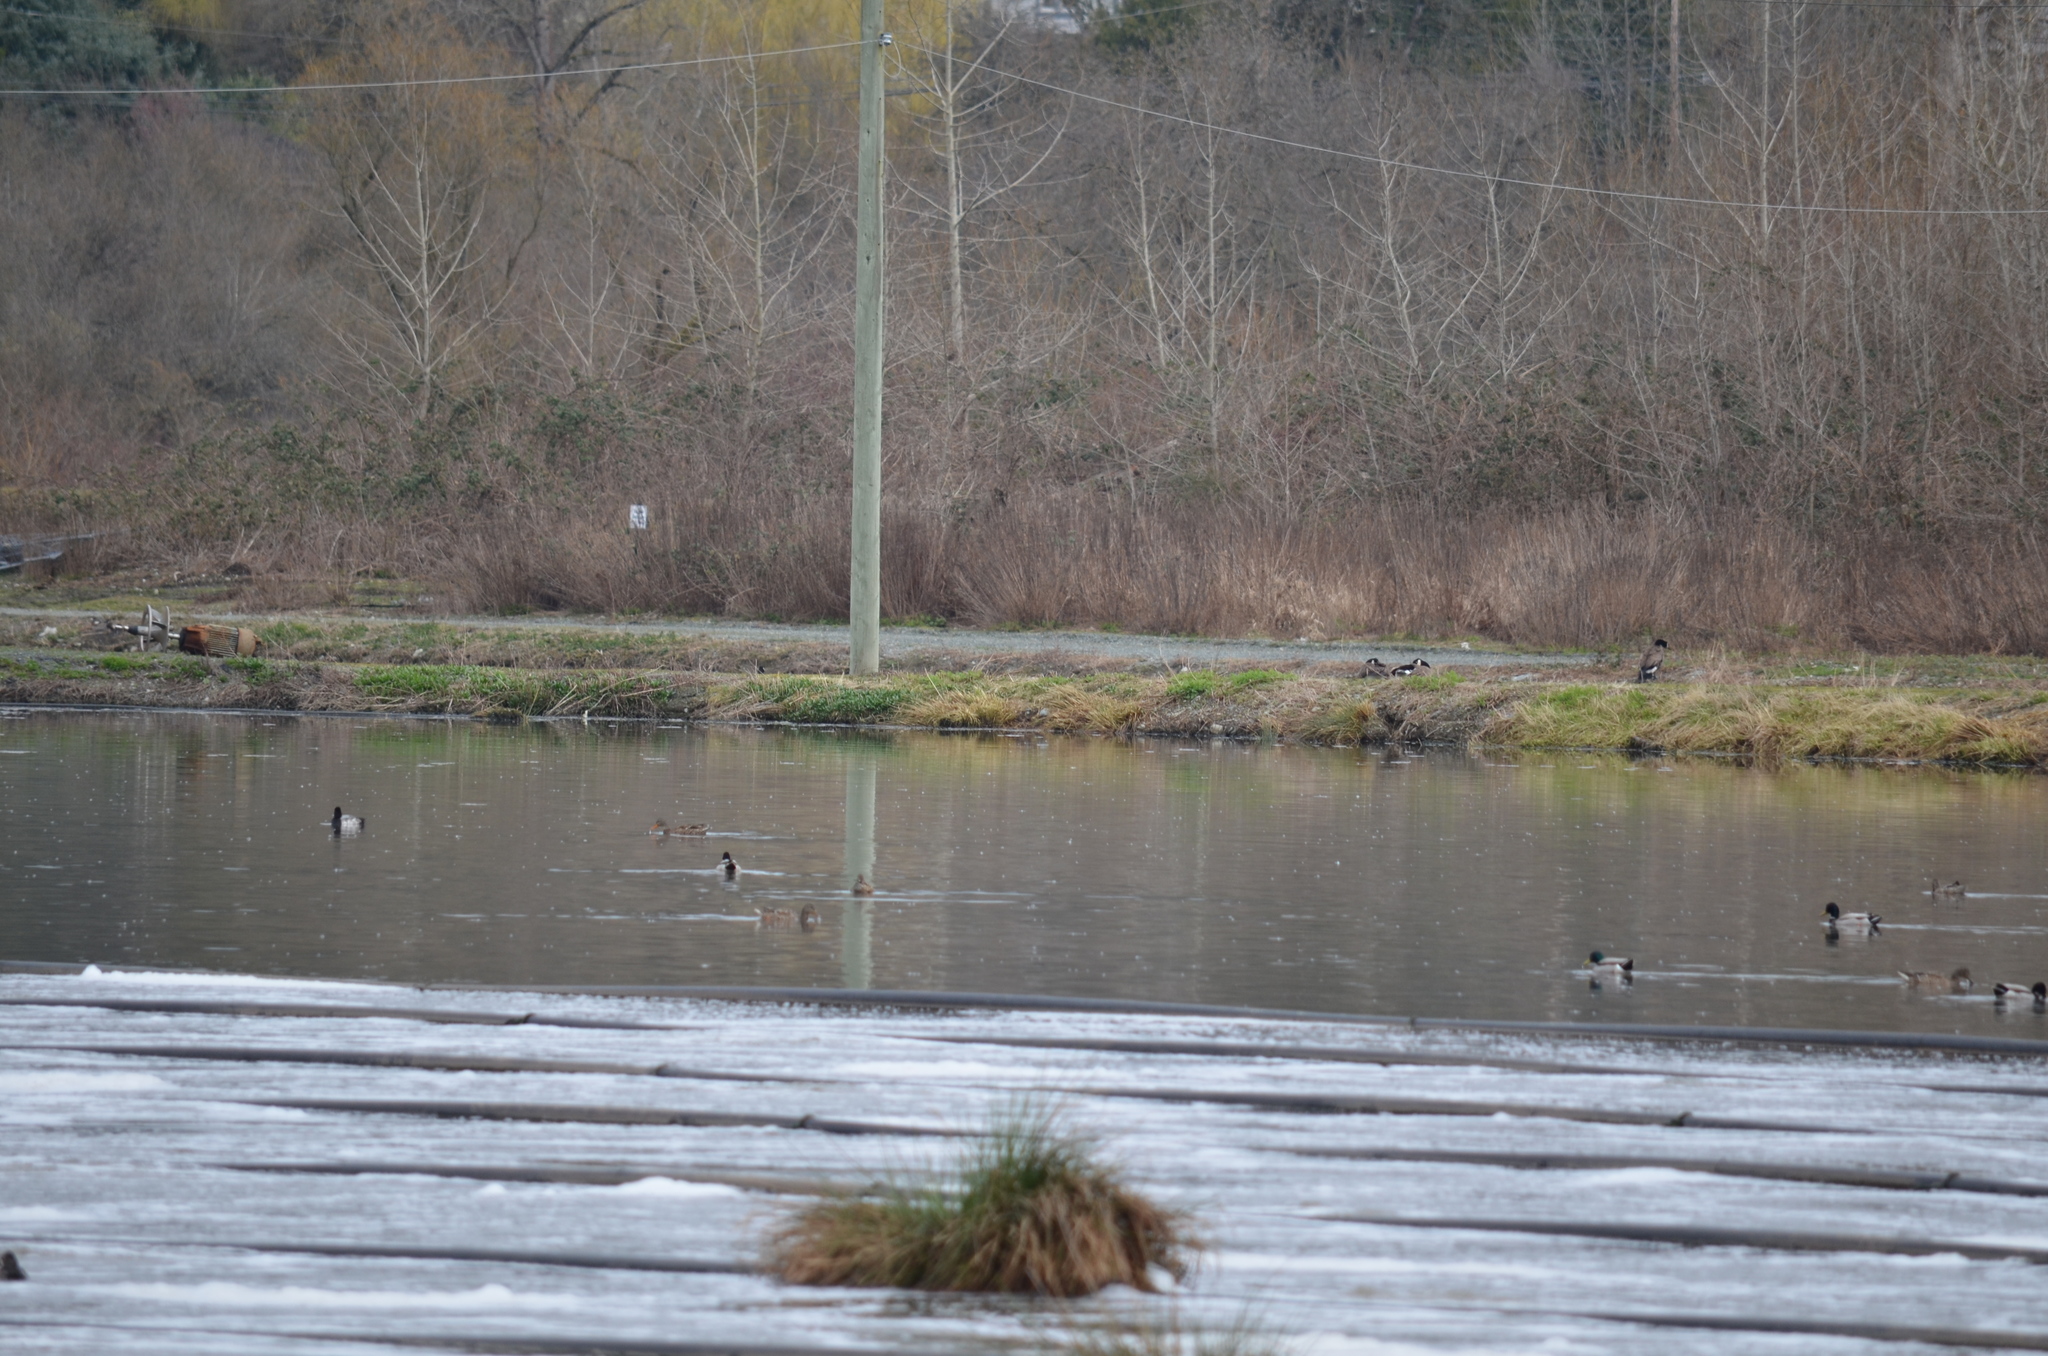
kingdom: Animalia
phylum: Chordata
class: Aves
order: Anseriformes
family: Anatidae
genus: Branta
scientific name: Branta canadensis
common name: Canada goose
